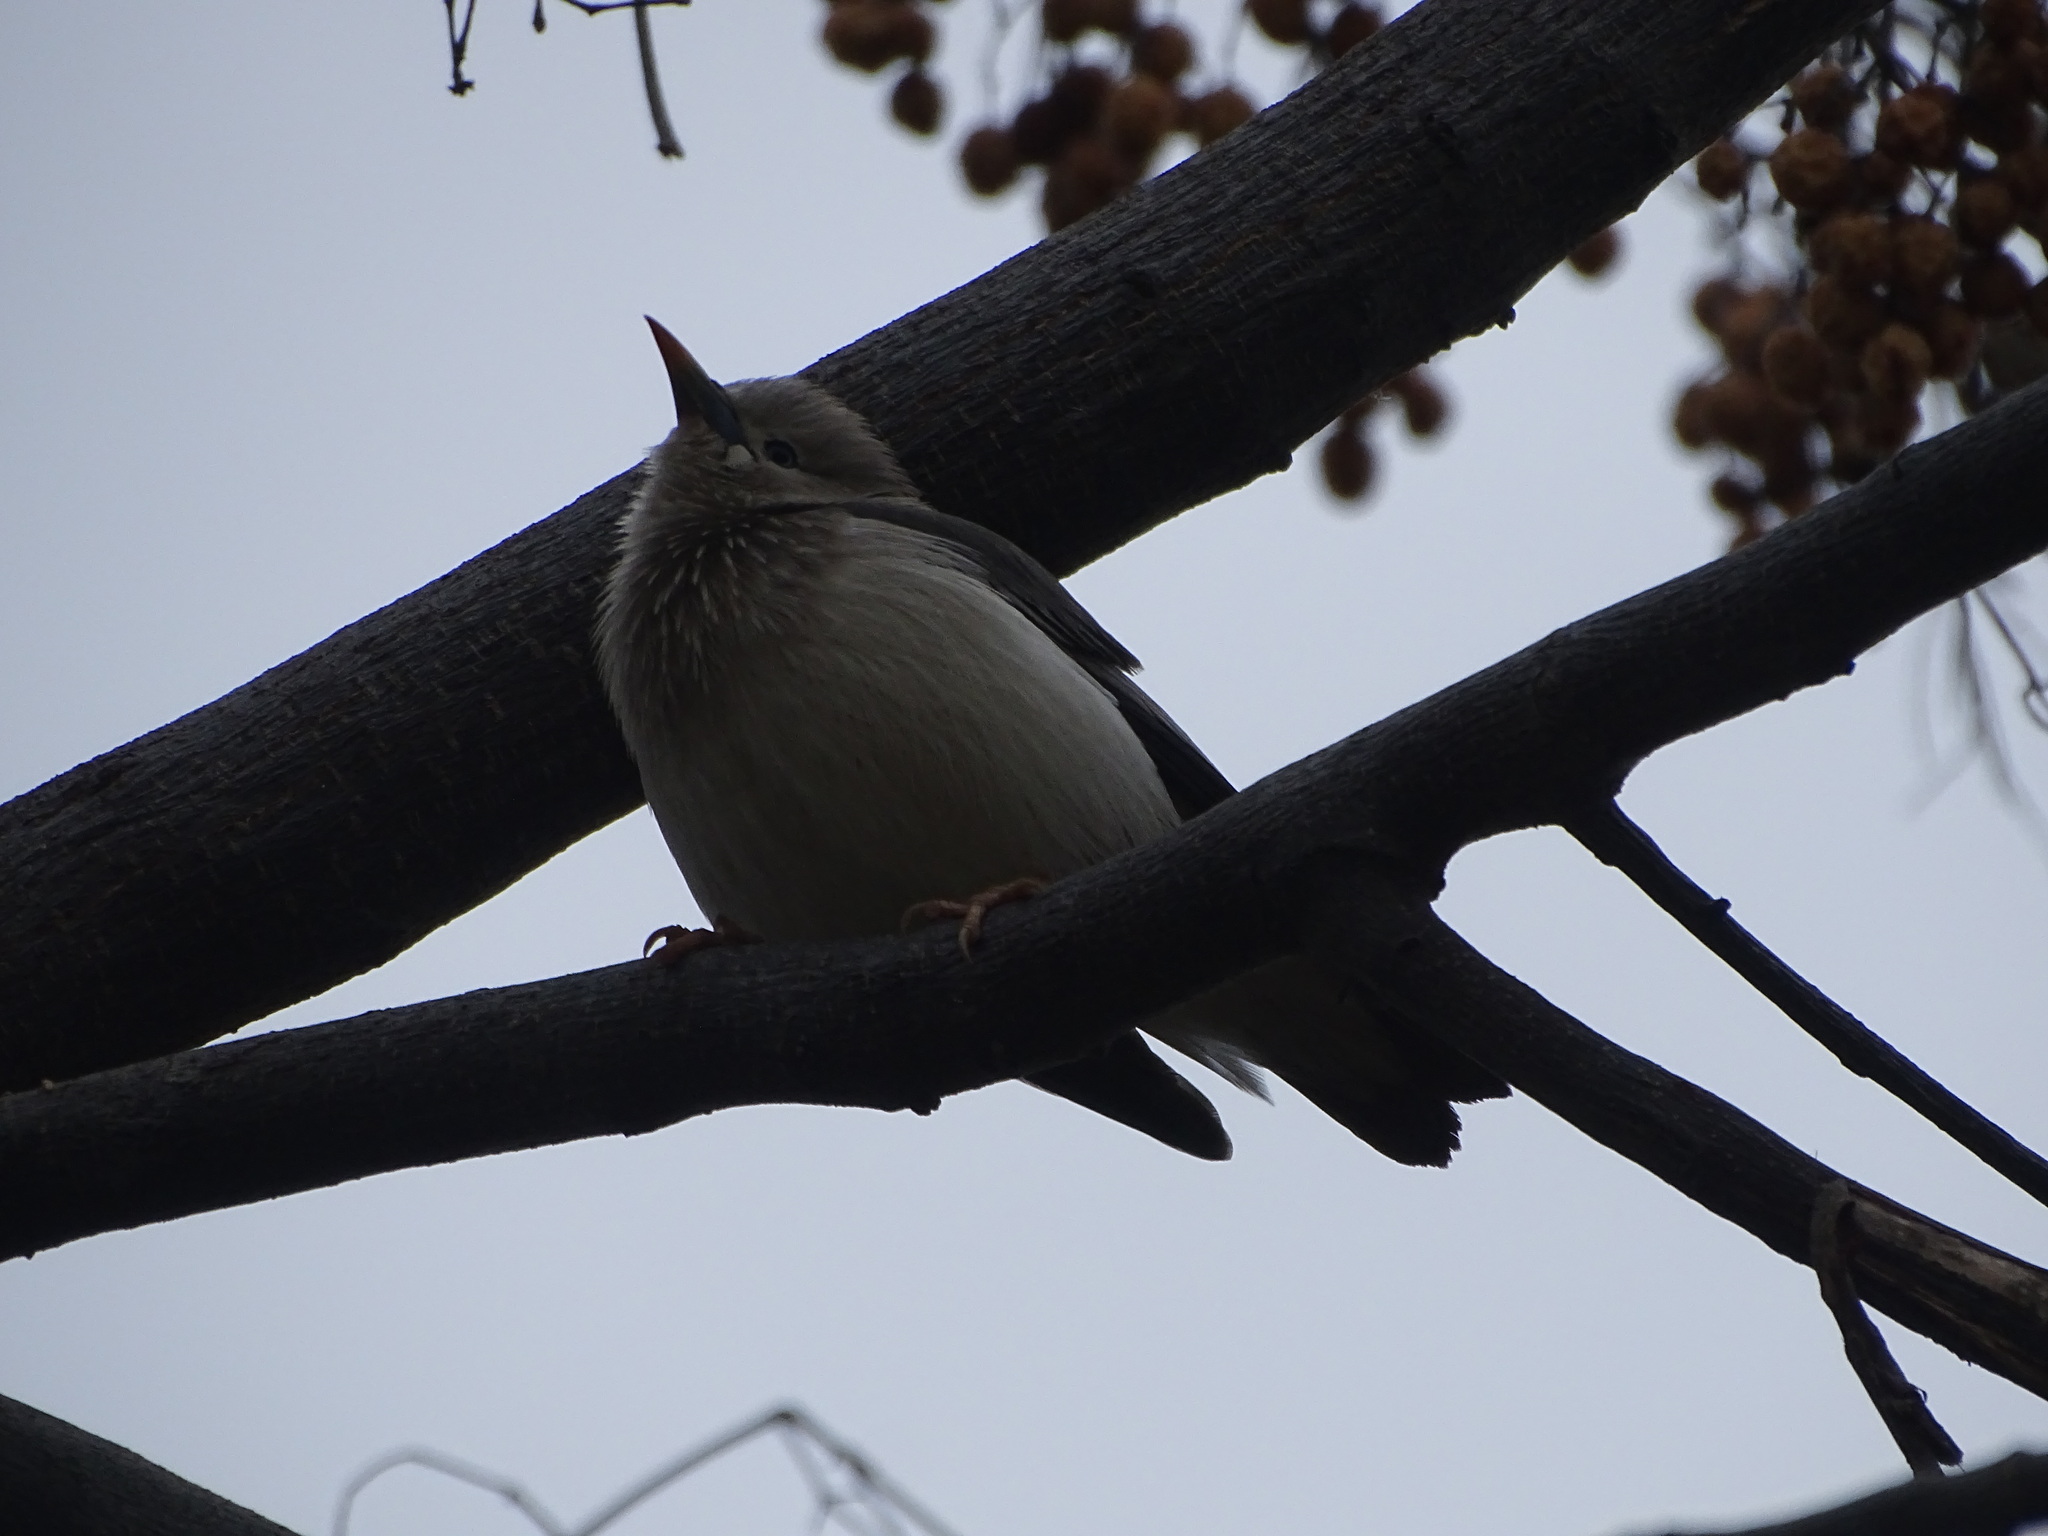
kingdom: Animalia
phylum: Chordata
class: Aves
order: Passeriformes
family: Sturnidae
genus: Sturnia
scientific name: Sturnia malabarica
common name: Chestnut-tailed starling
